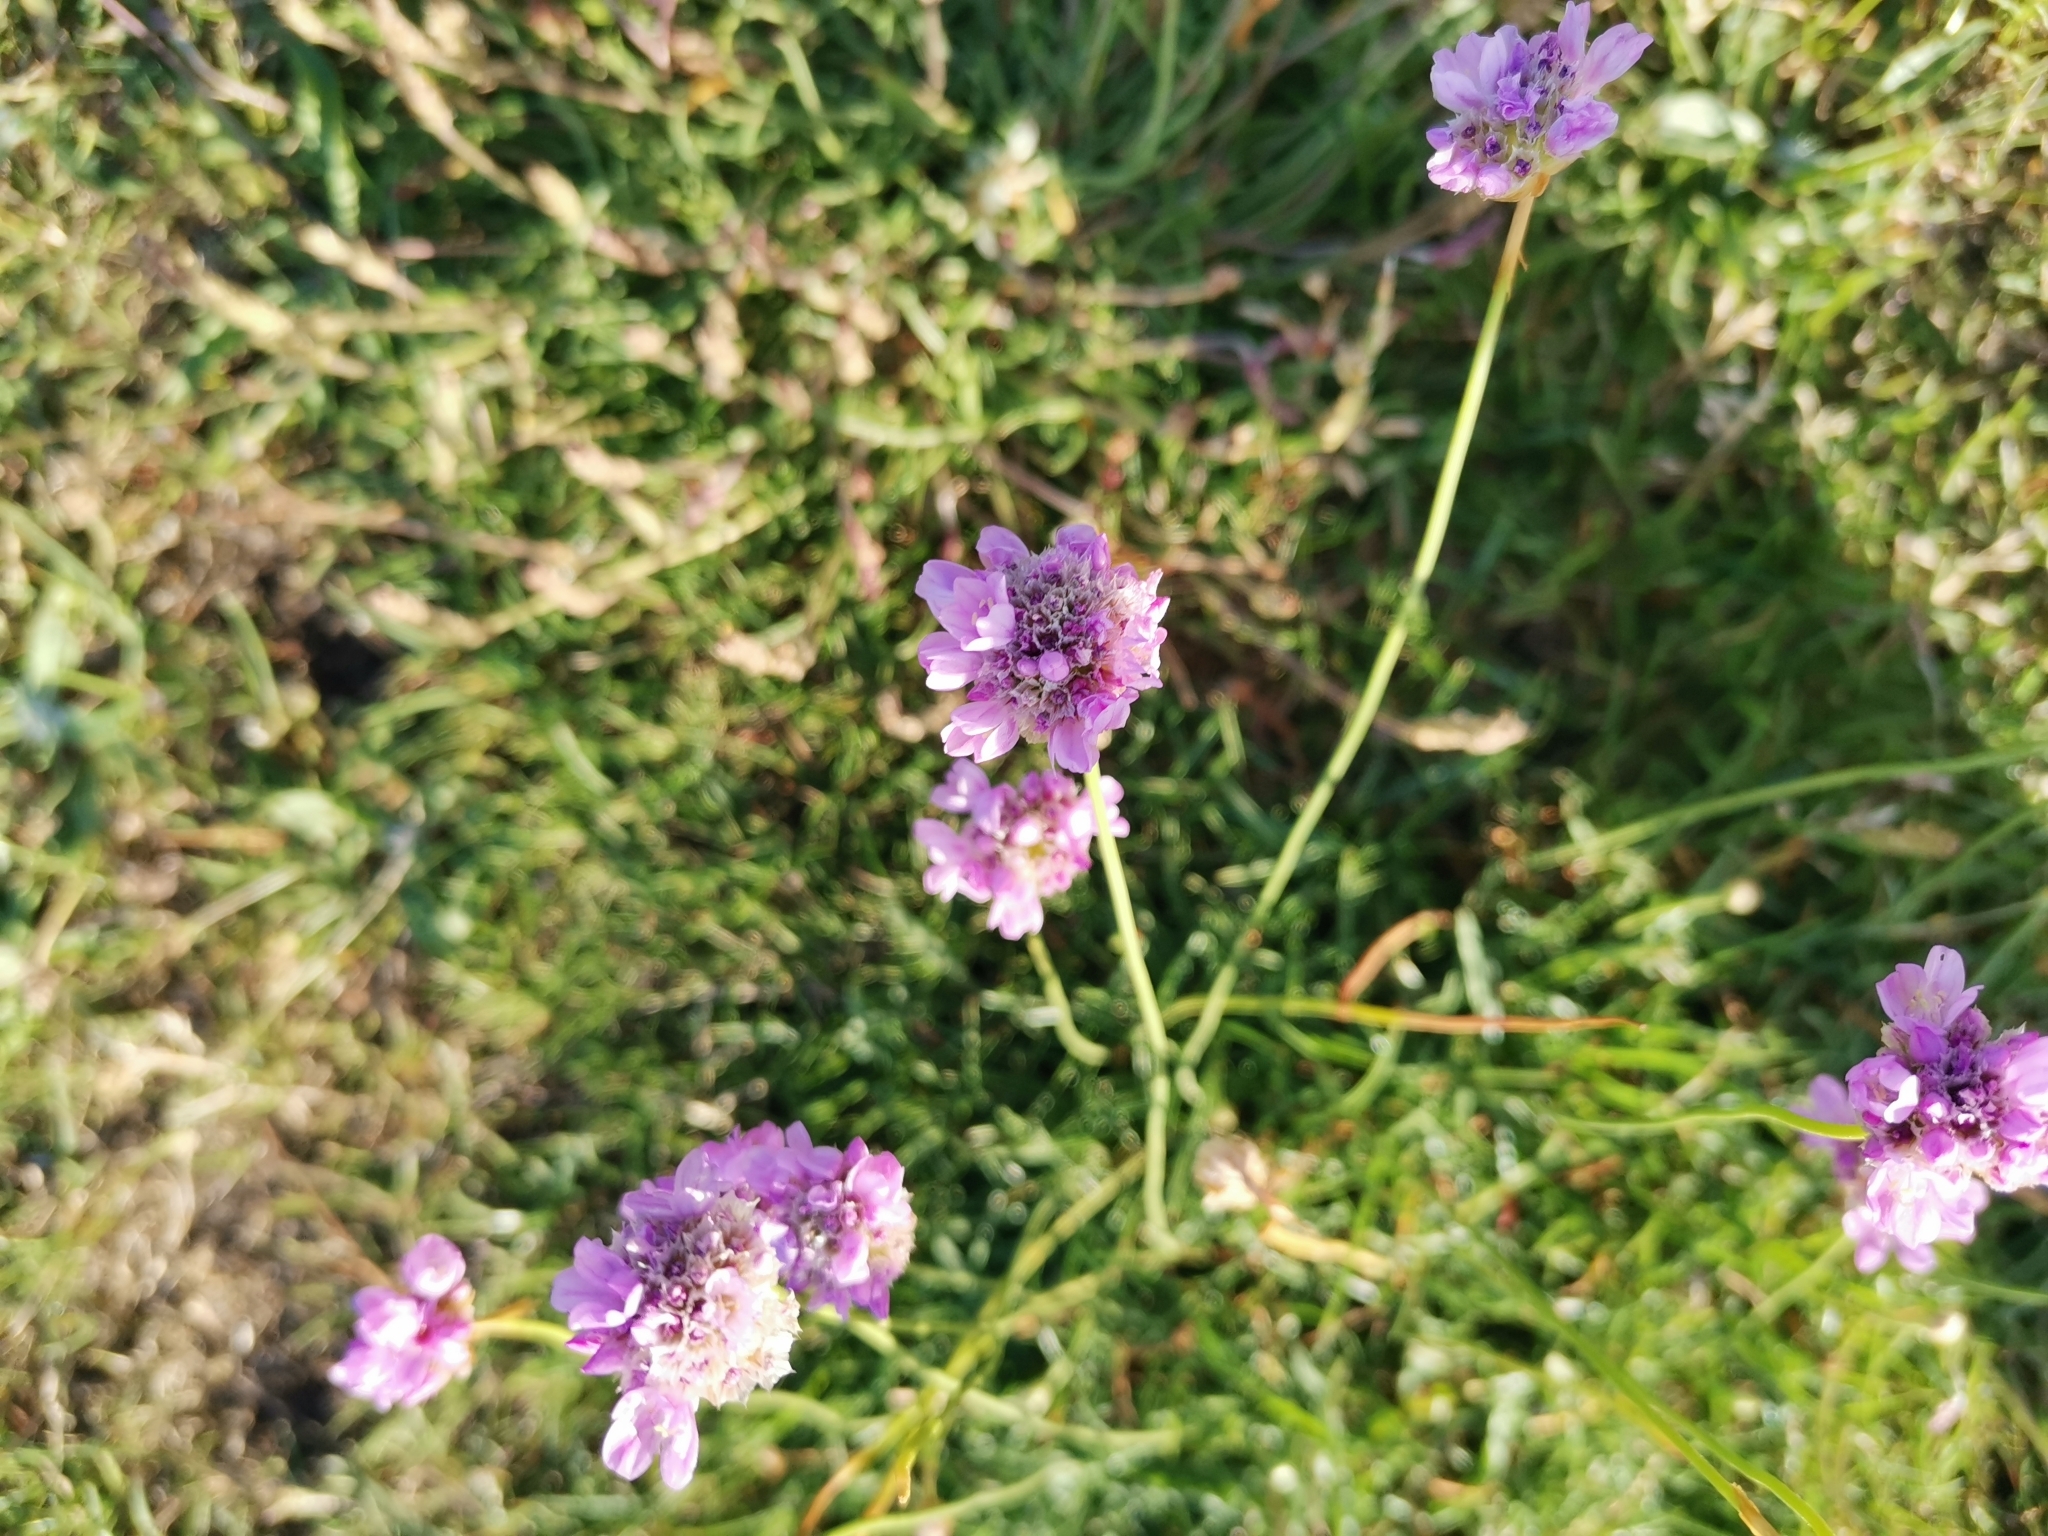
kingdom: Plantae
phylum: Tracheophyta
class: Magnoliopsida
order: Caryophyllales
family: Plumbaginaceae
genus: Armeria
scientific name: Armeria maritima
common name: Thrift
